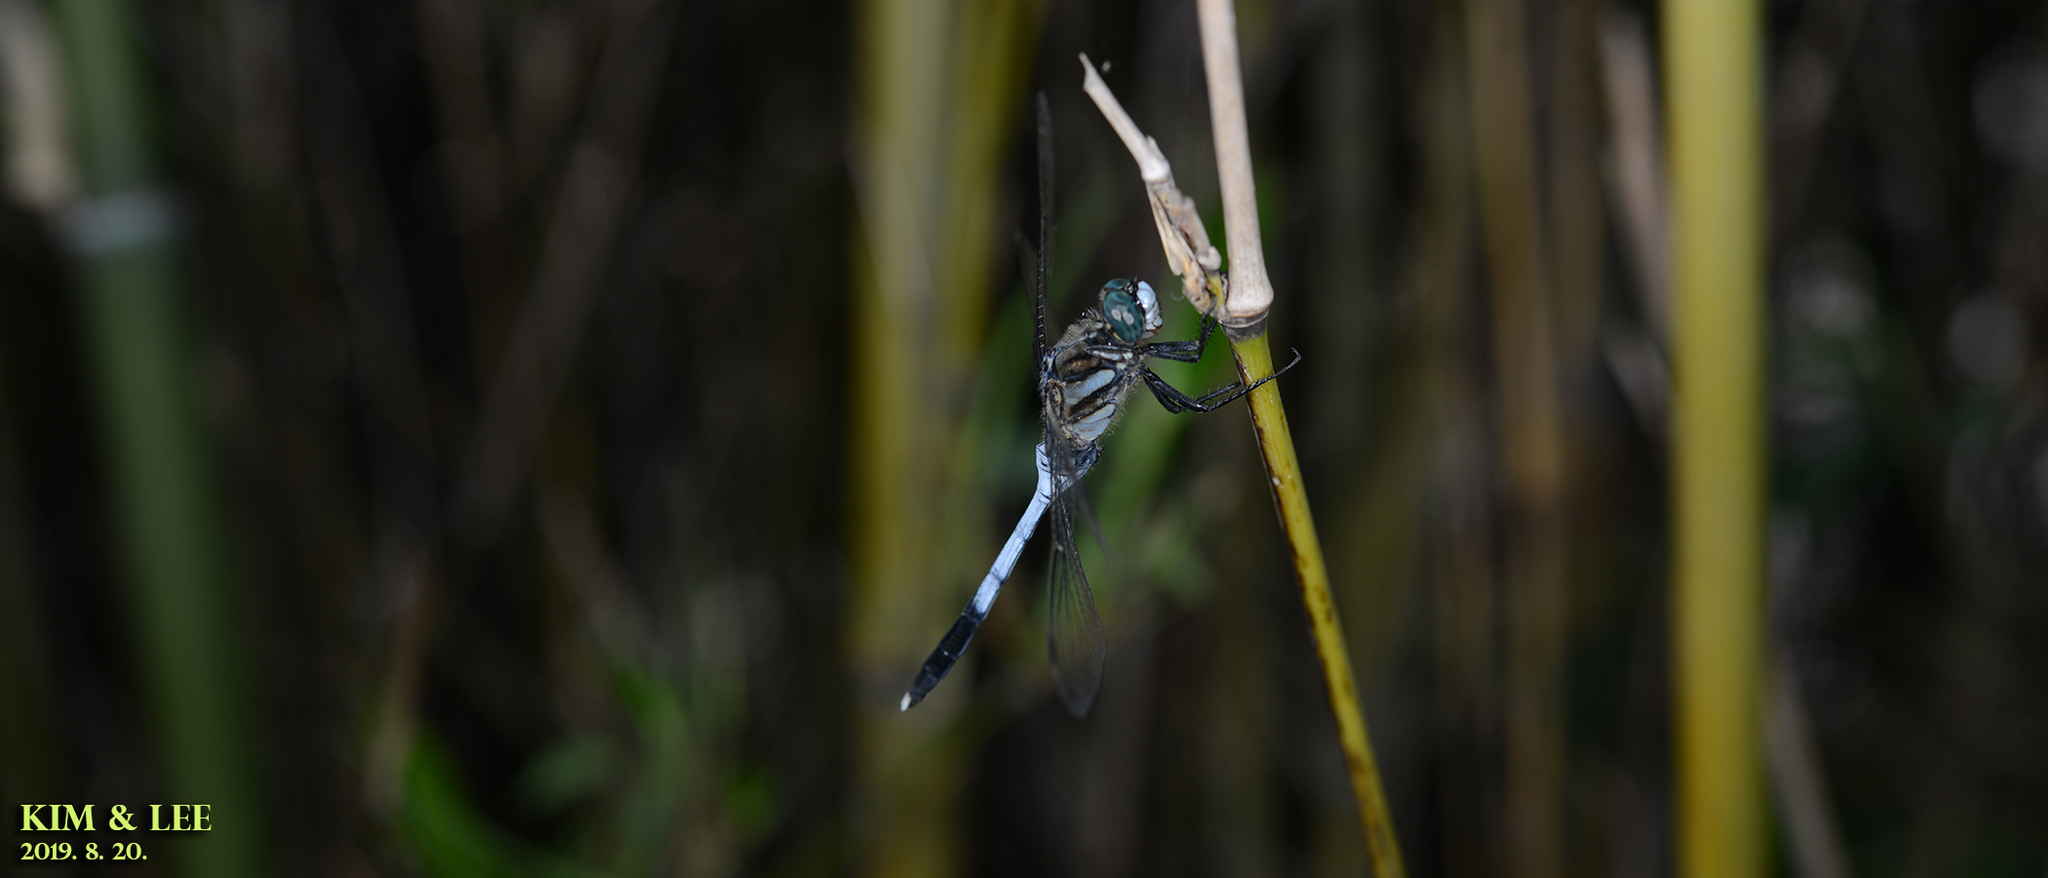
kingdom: Animalia
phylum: Arthropoda
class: Insecta
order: Odonata
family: Libellulidae
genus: Orthetrum
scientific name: Orthetrum albistylum
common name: White-tailed skimmer
